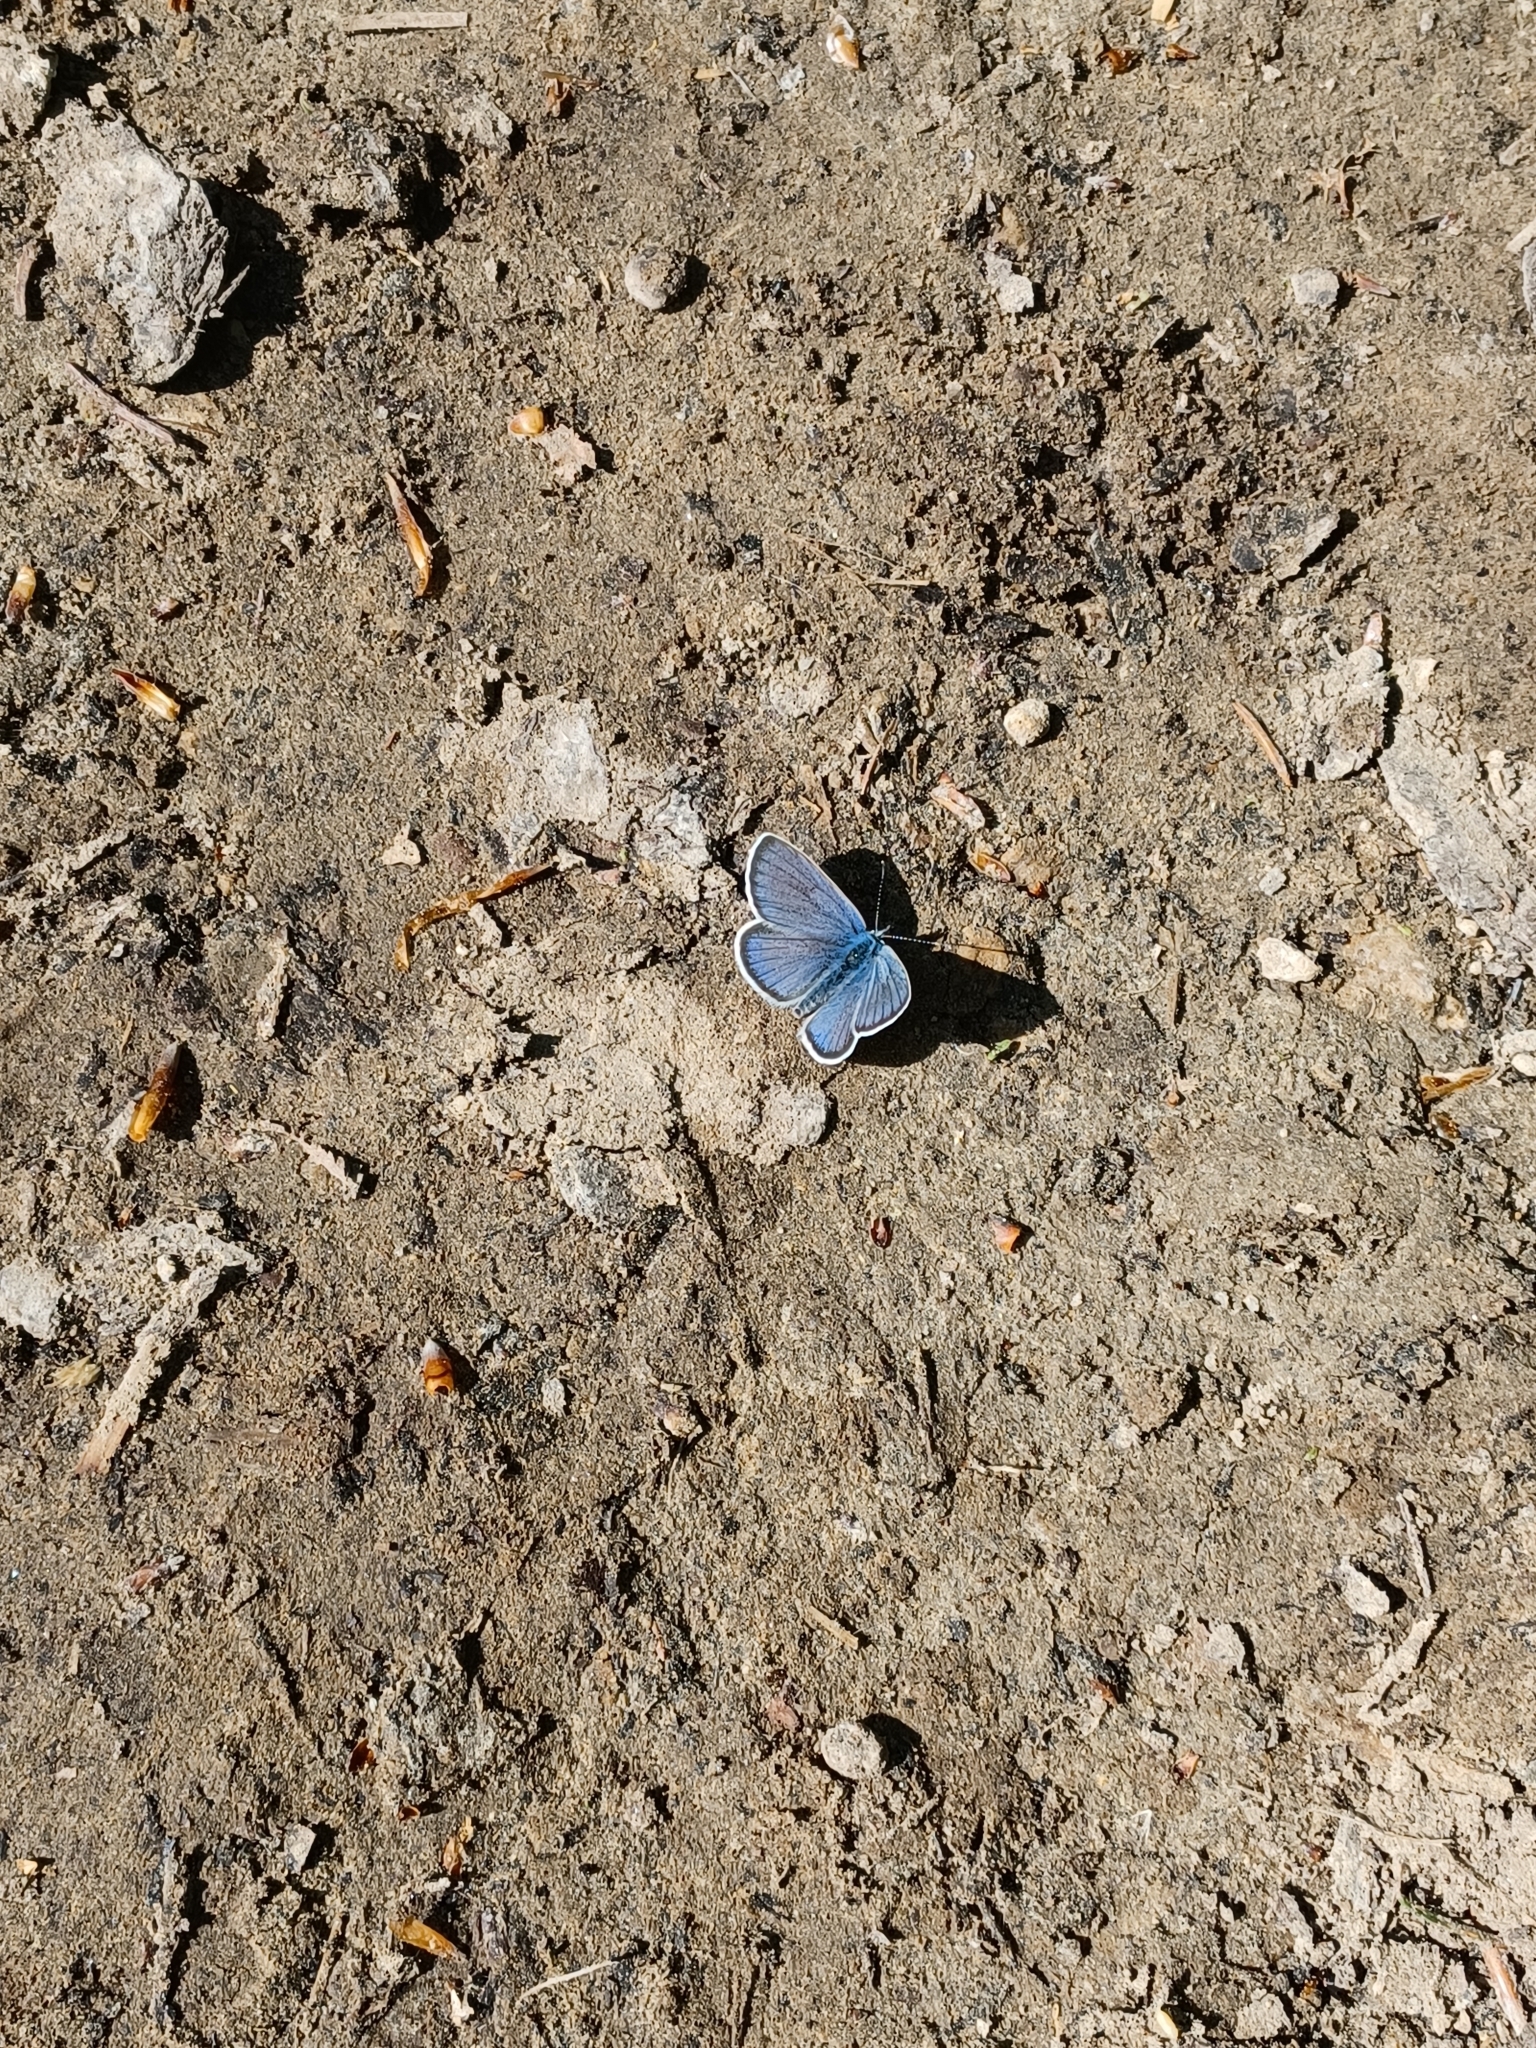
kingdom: Animalia
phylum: Arthropoda
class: Insecta
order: Lepidoptera
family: Lycaenidae
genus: Cyaniris
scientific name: Cyaniris semiargus
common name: Mazarine blue
